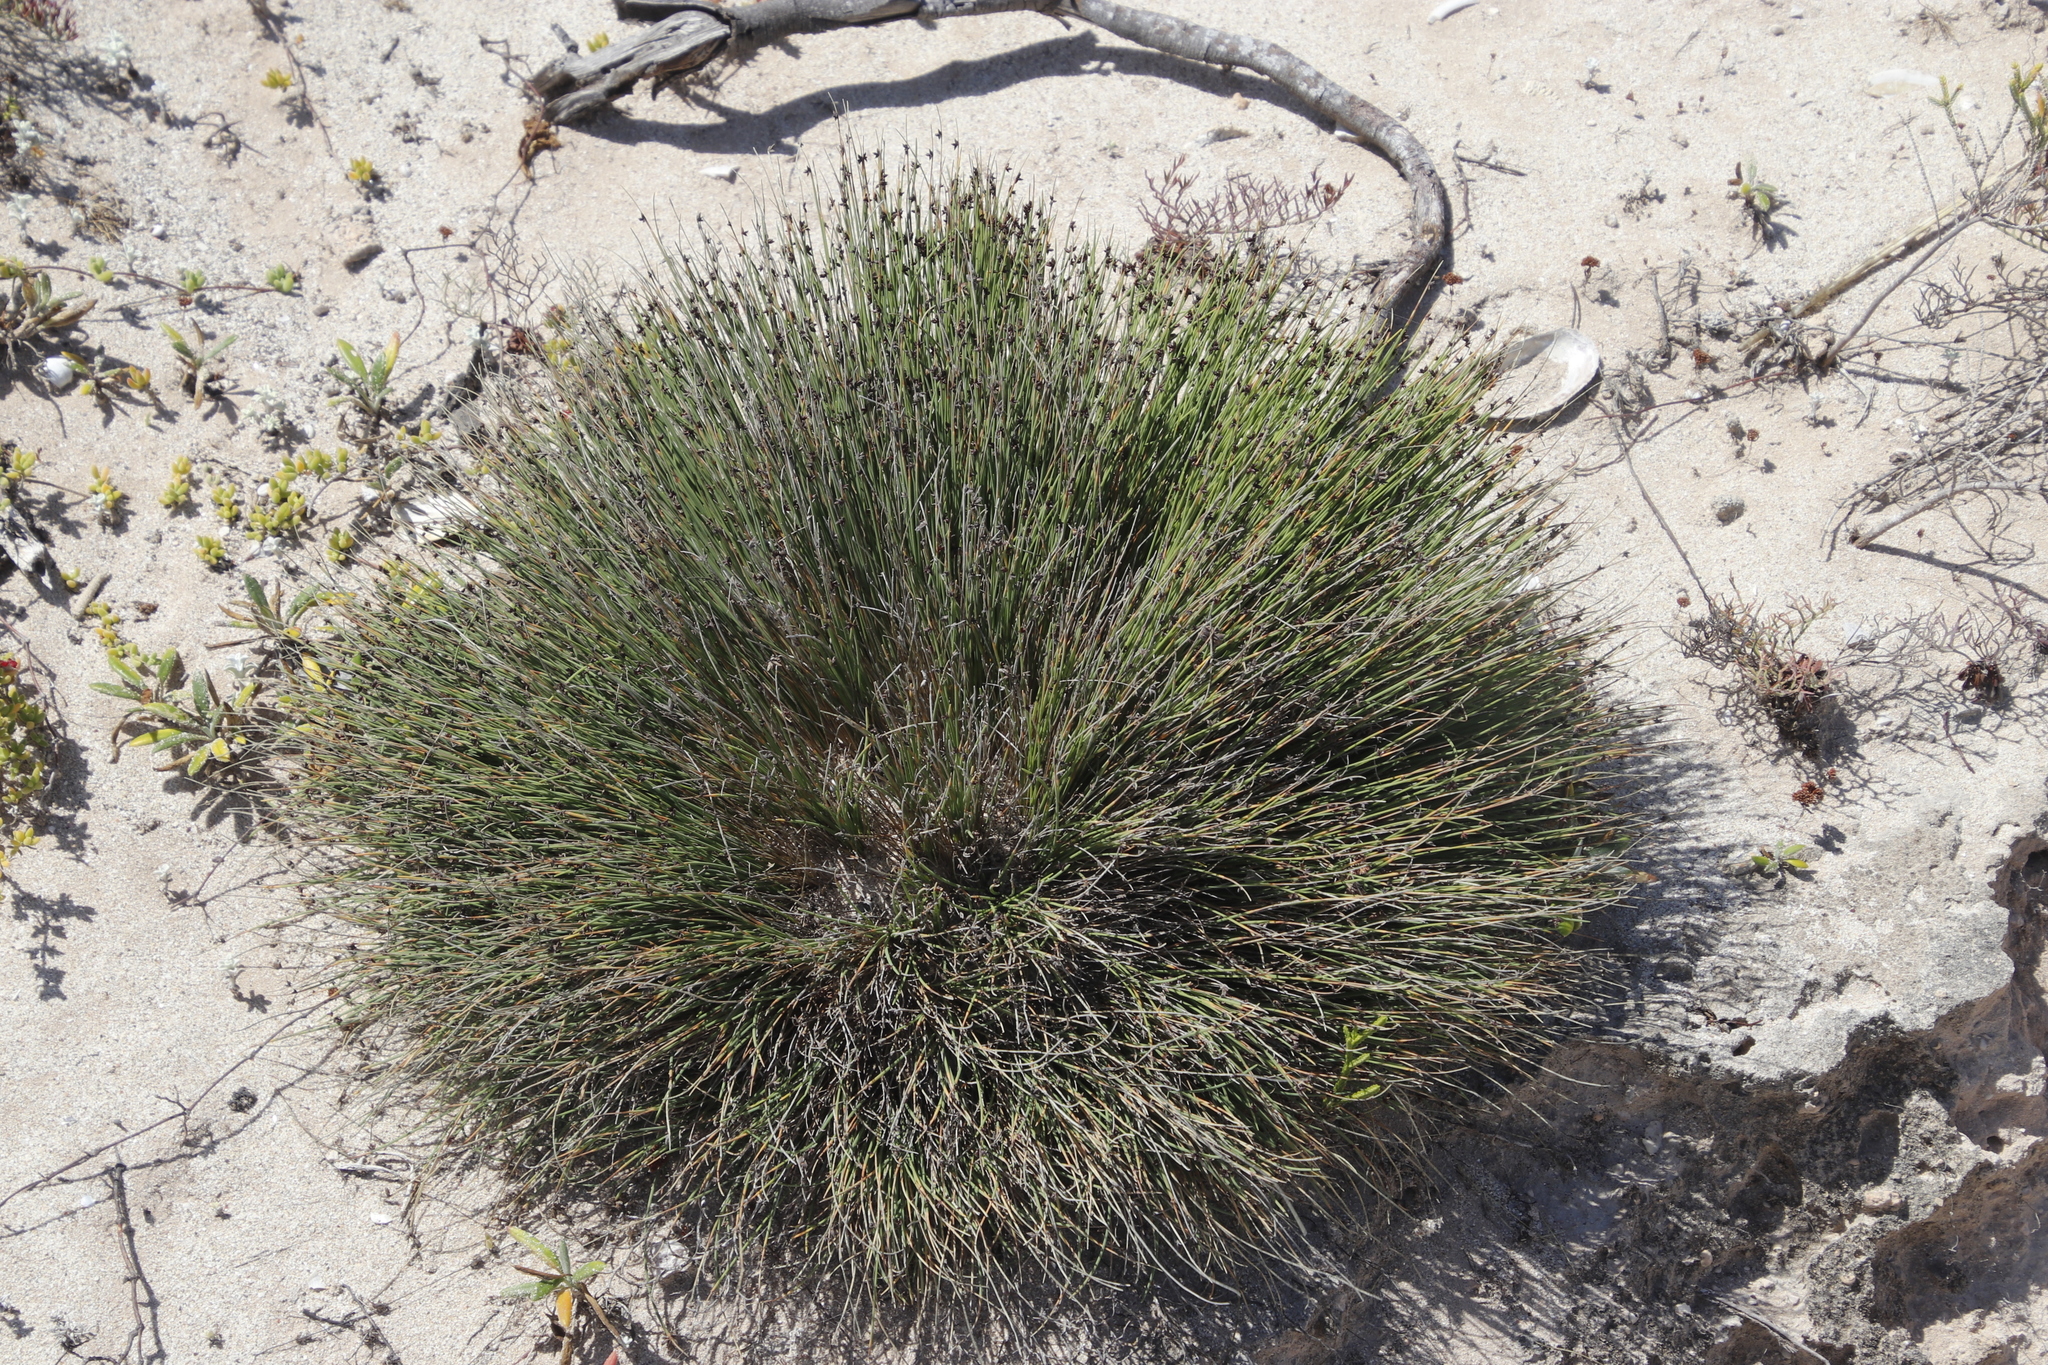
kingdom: Plantae
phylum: Tracheophyta
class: Liliopsida
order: Poales
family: Cyperaceae
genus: Ficinia
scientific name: Ficinia lateralis
